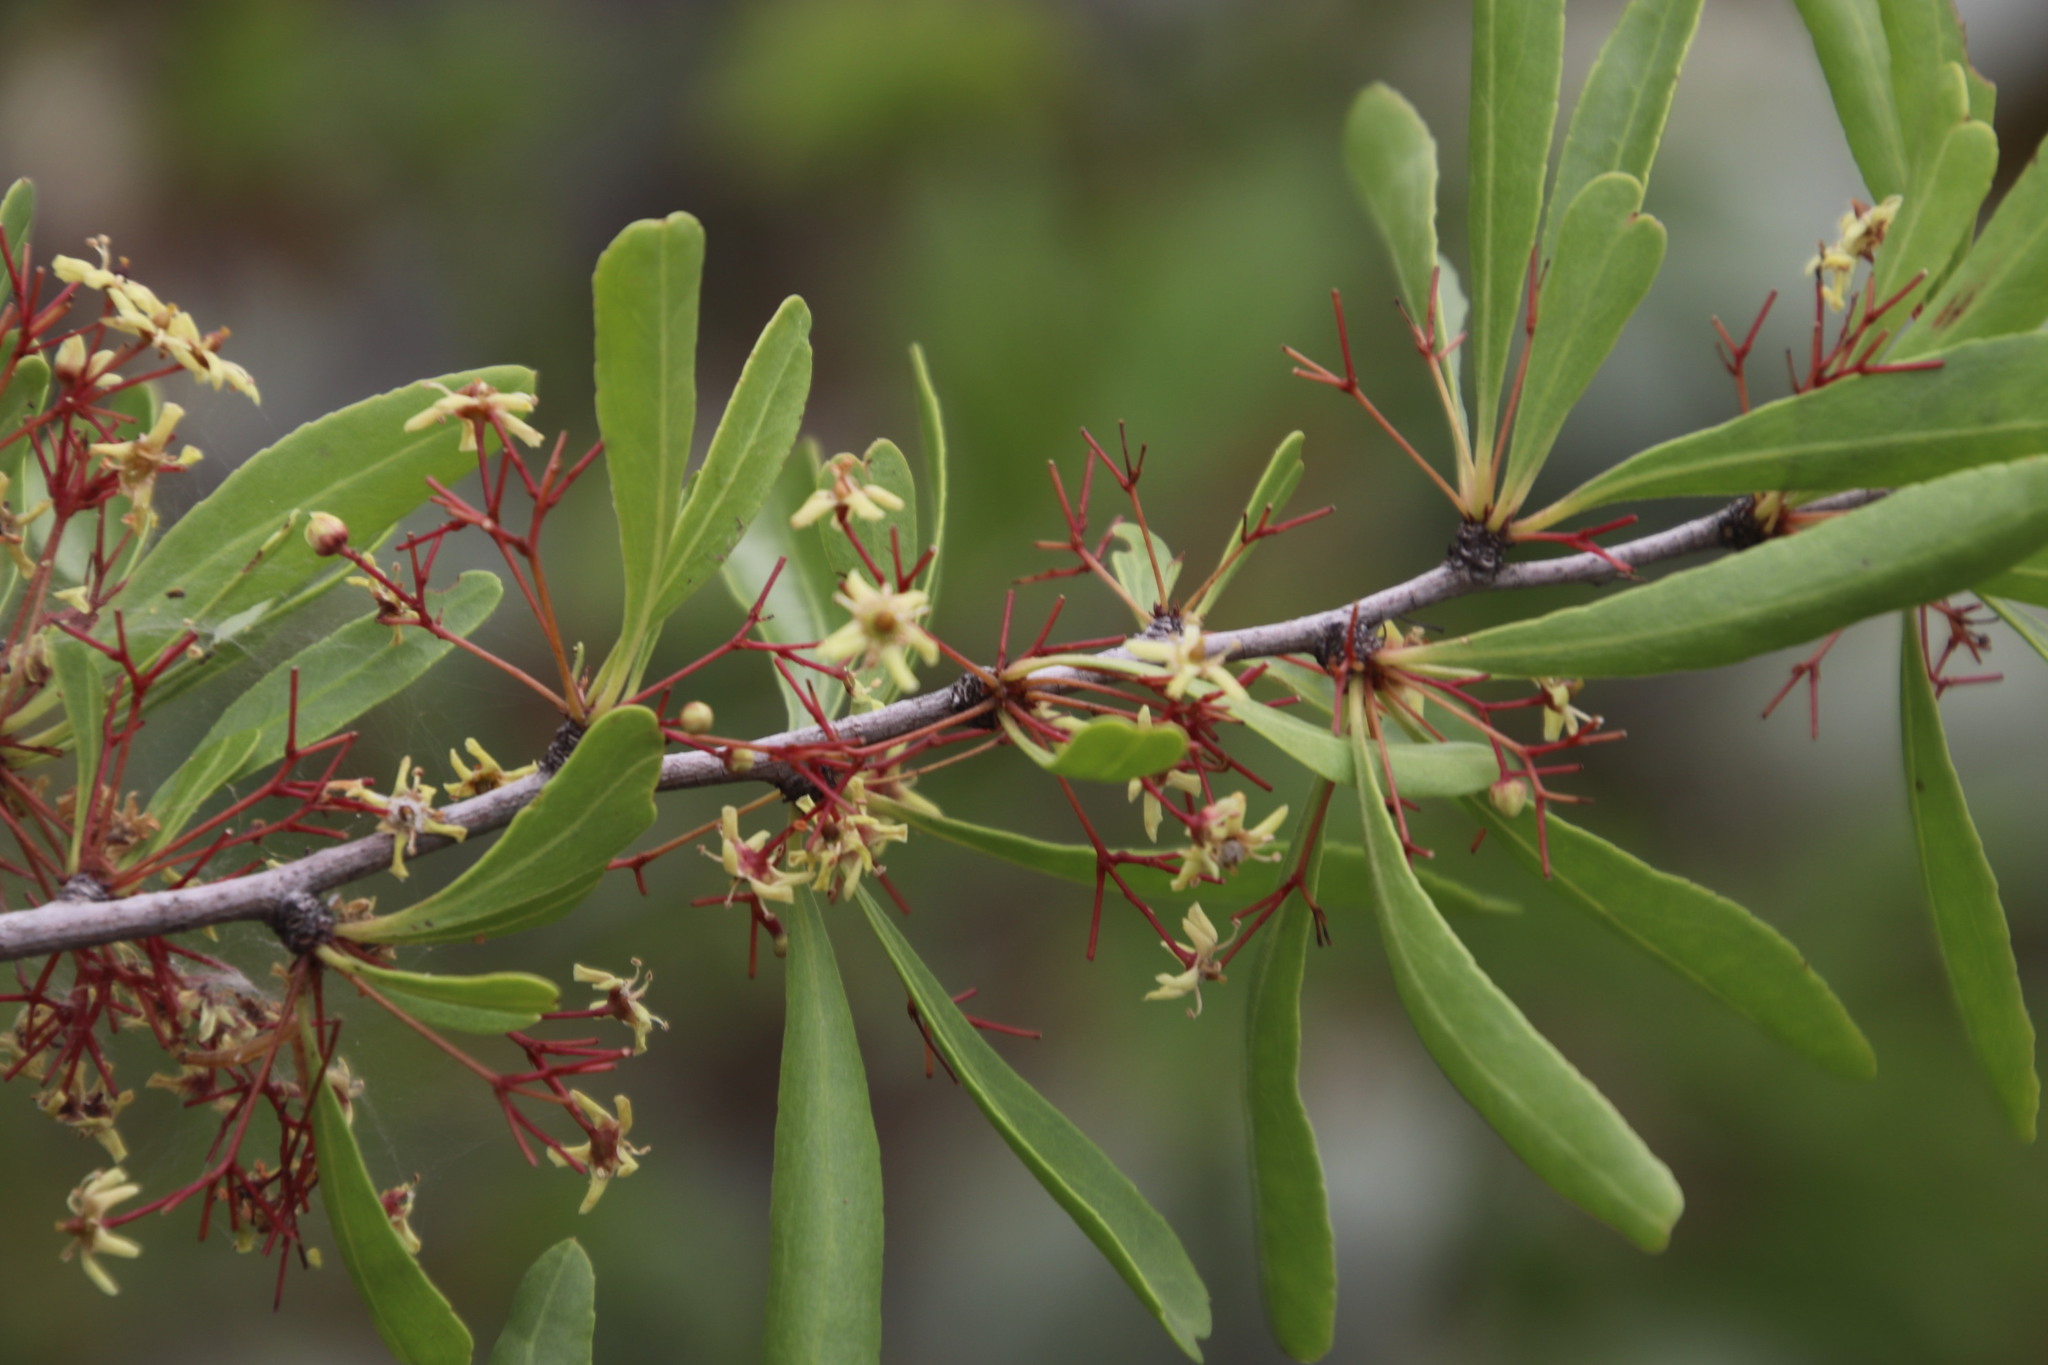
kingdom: Plantae
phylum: Tracheophyta
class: Magnoliopsida
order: Celastrales
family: Celastraceae
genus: Gymnosporia
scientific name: Gymnosporia tenuispina
